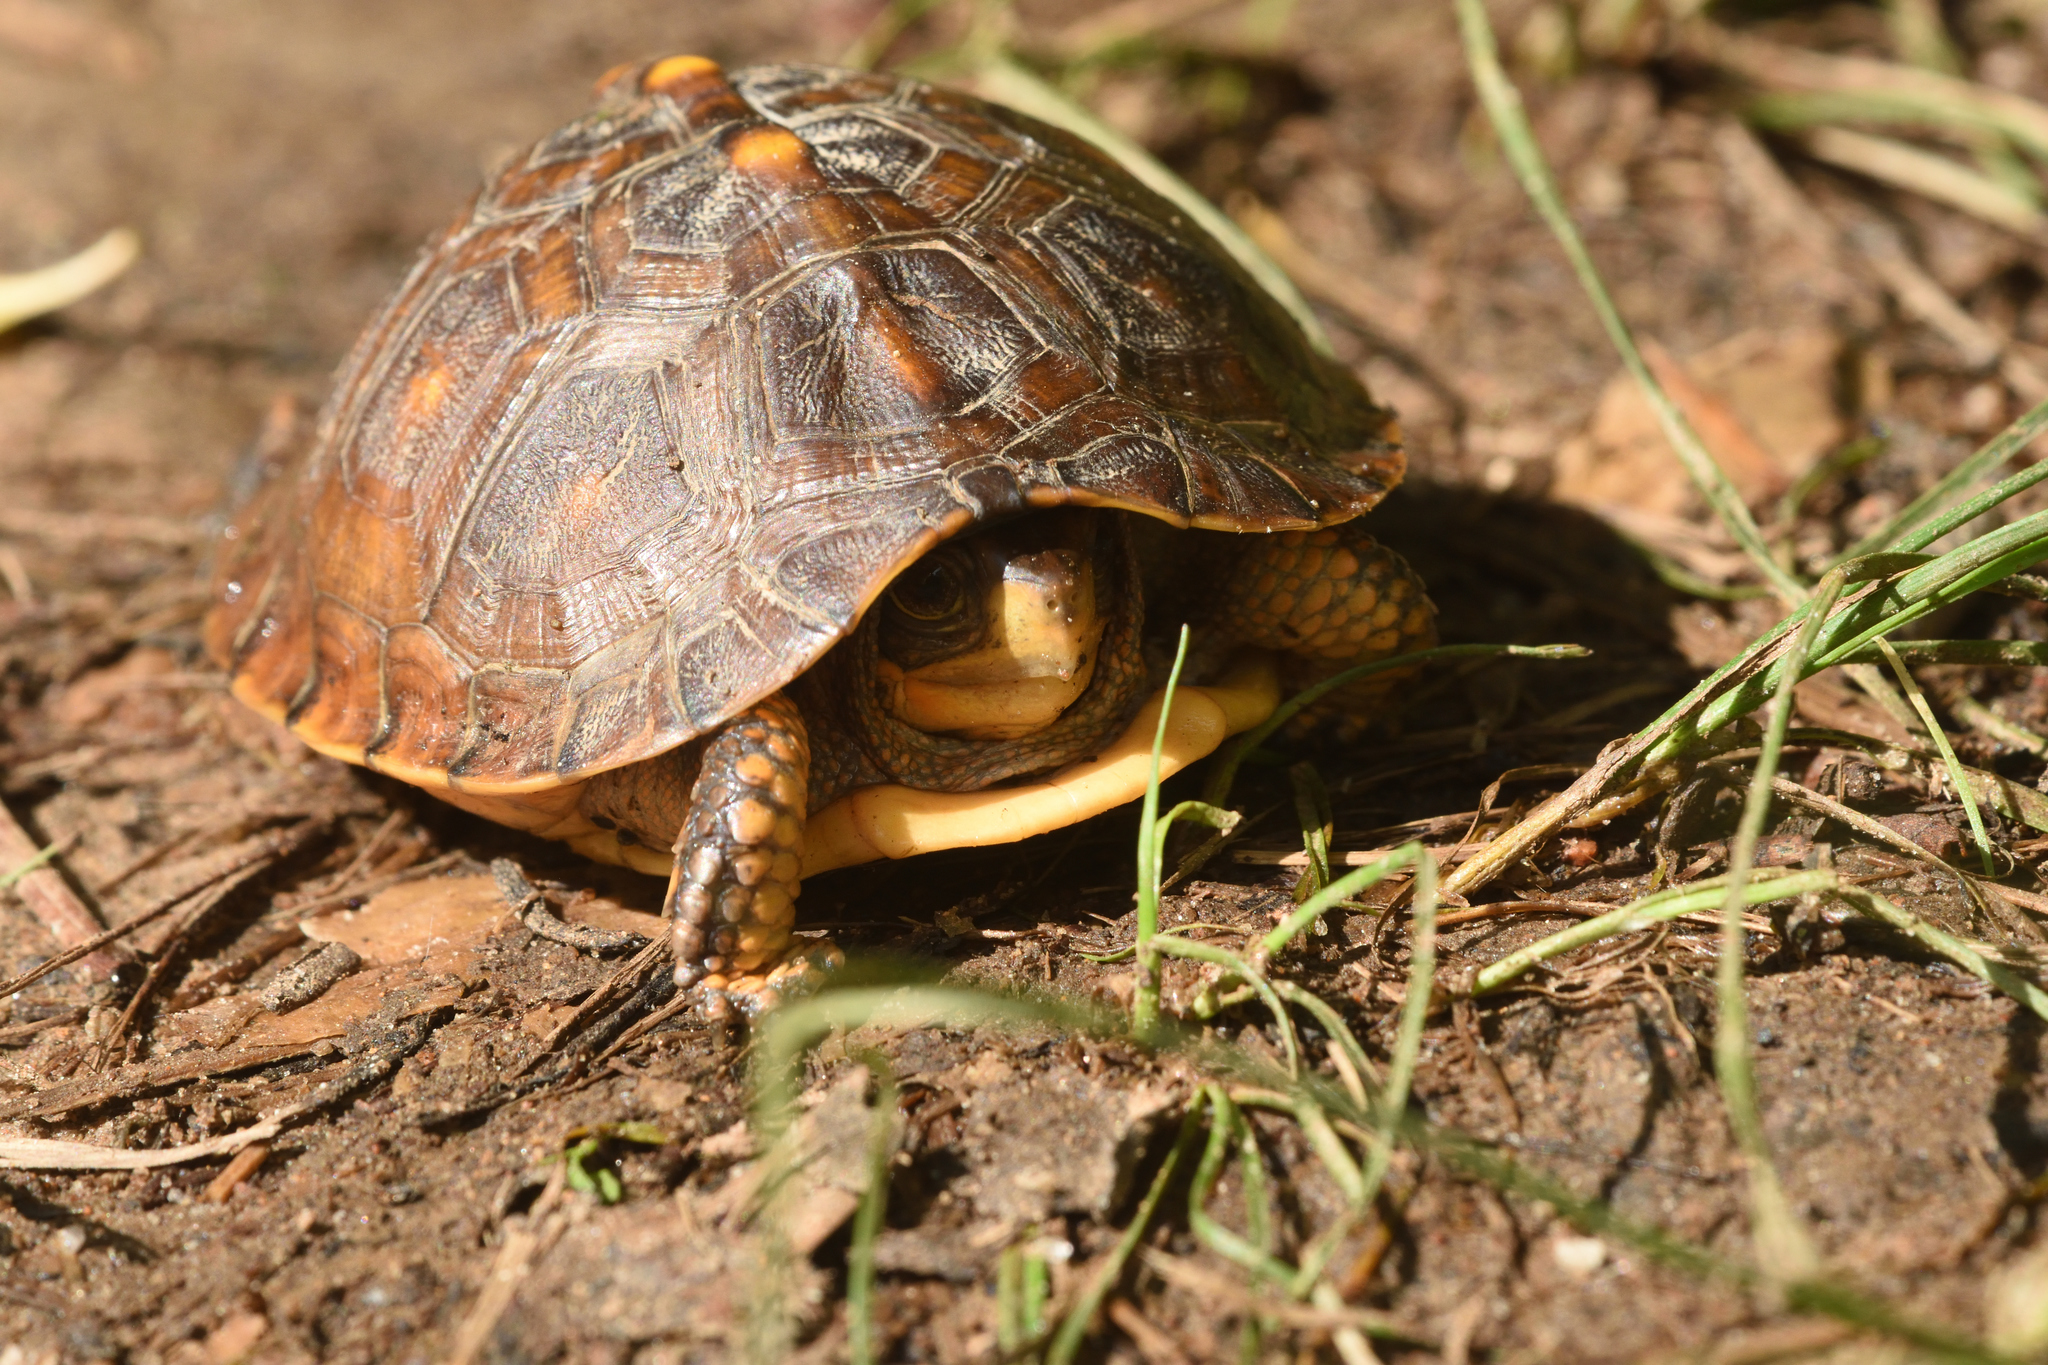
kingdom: Animalia
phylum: Chordata
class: Testudines
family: Emydidae
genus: Terrapene
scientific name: Terrapene carolina
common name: Common box turtle
